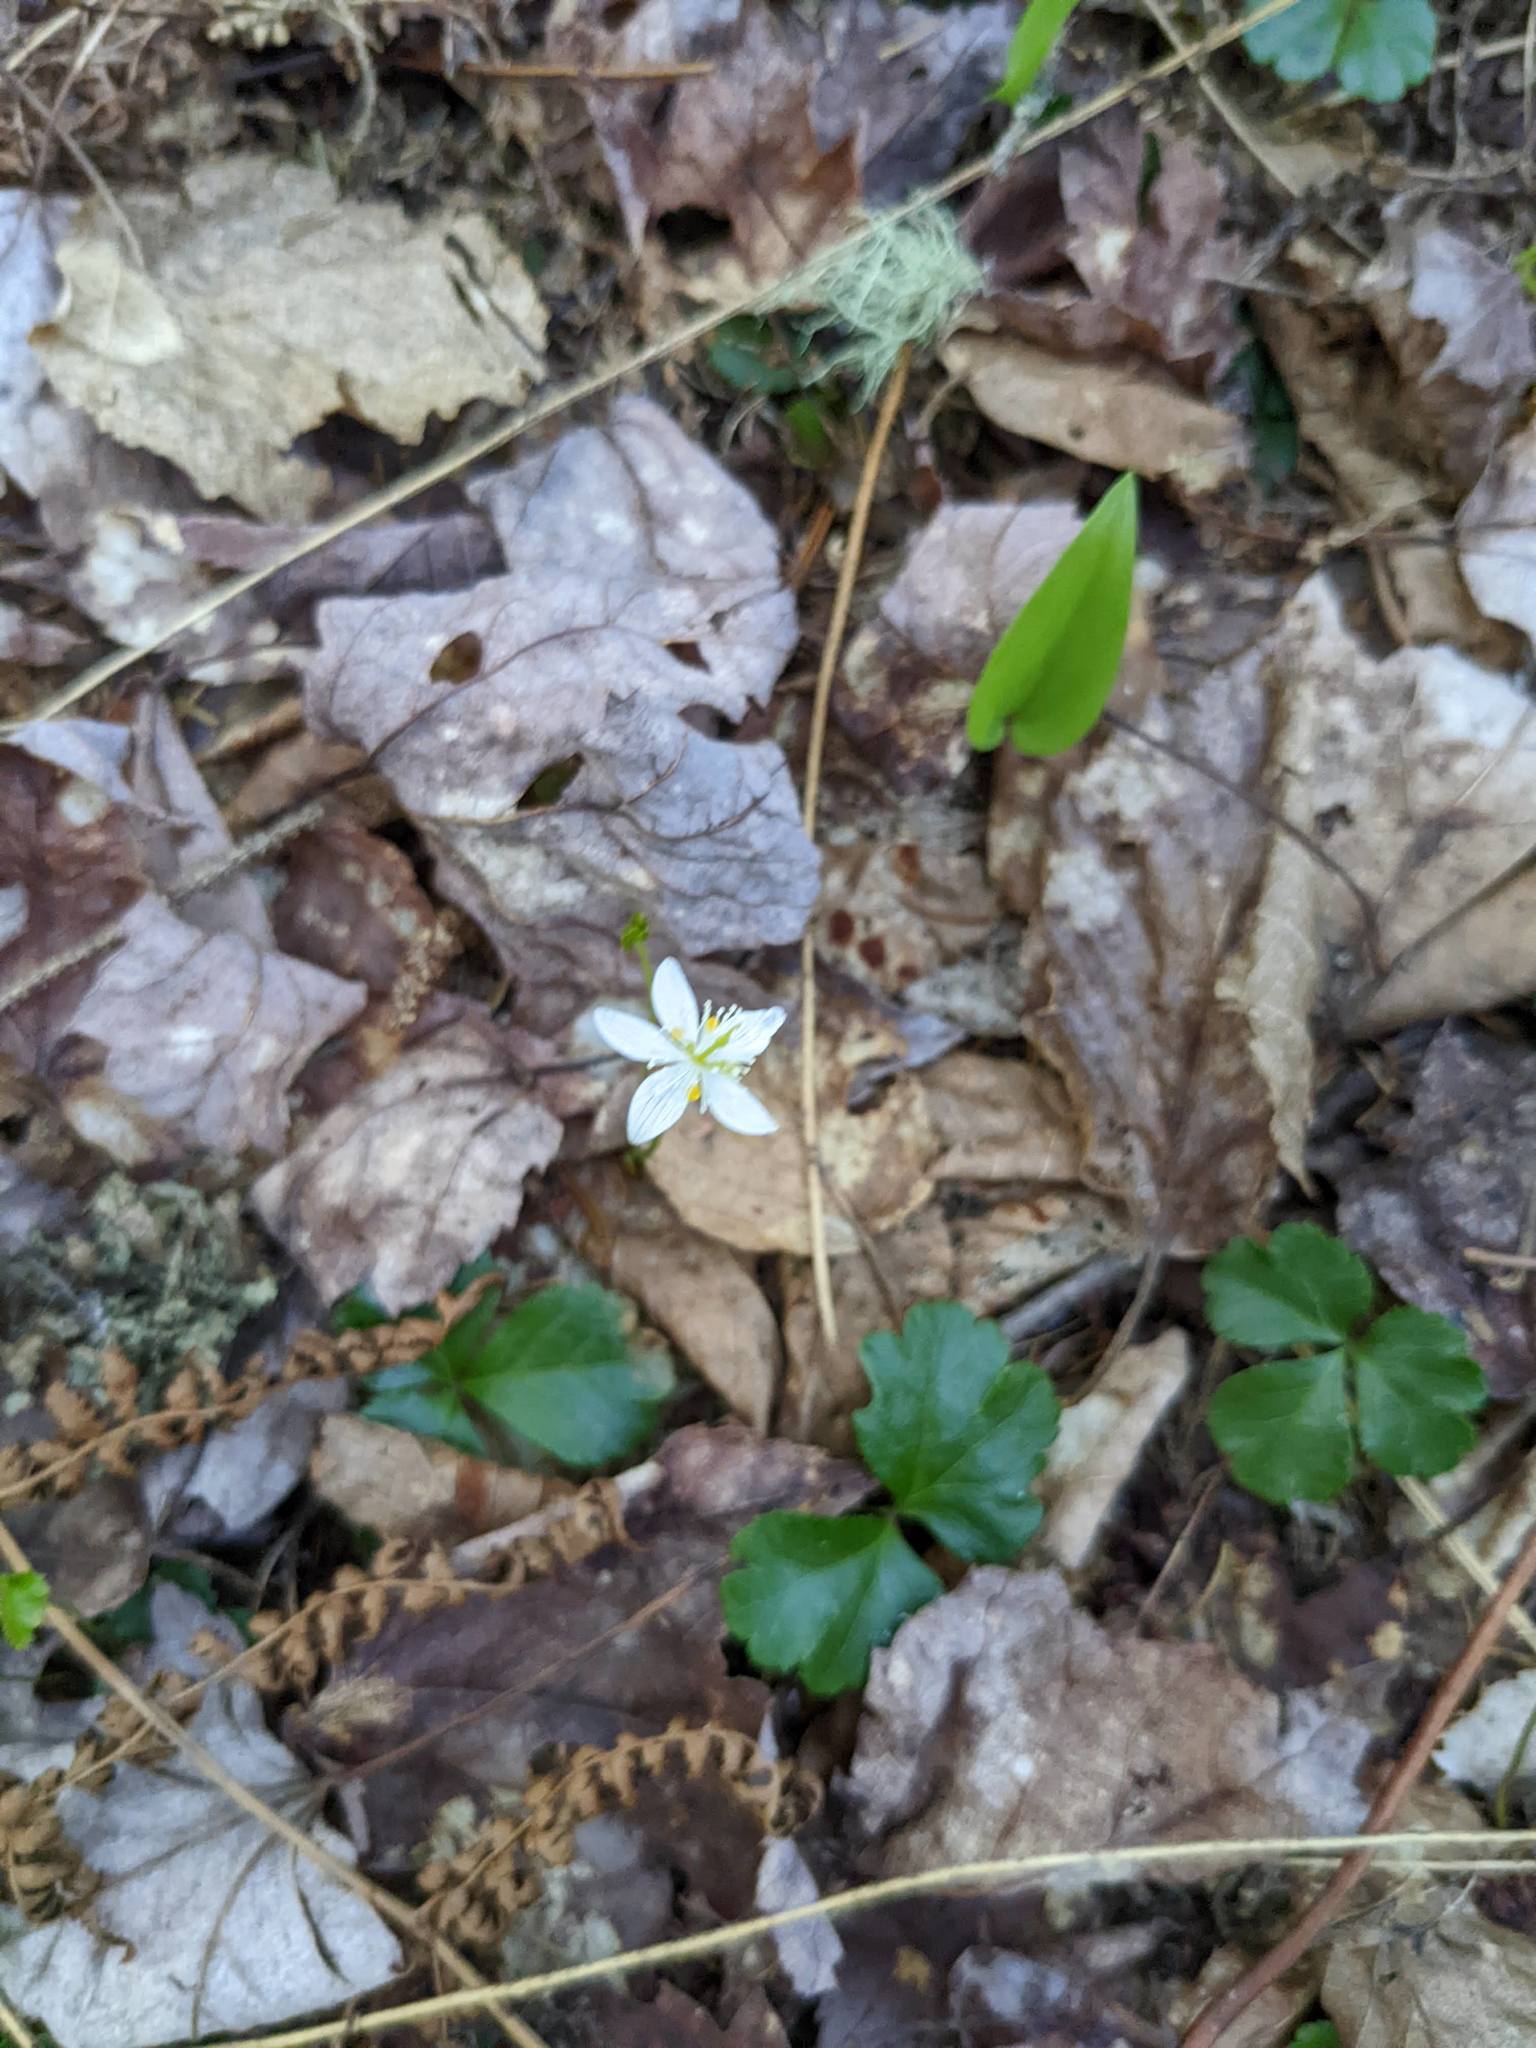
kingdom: Plantae
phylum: Tracheophyta
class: Magnoliopsida
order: Ranunculales
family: Ranunculaceae
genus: Coptis
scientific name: Coptis trifolia
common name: Canker-root
